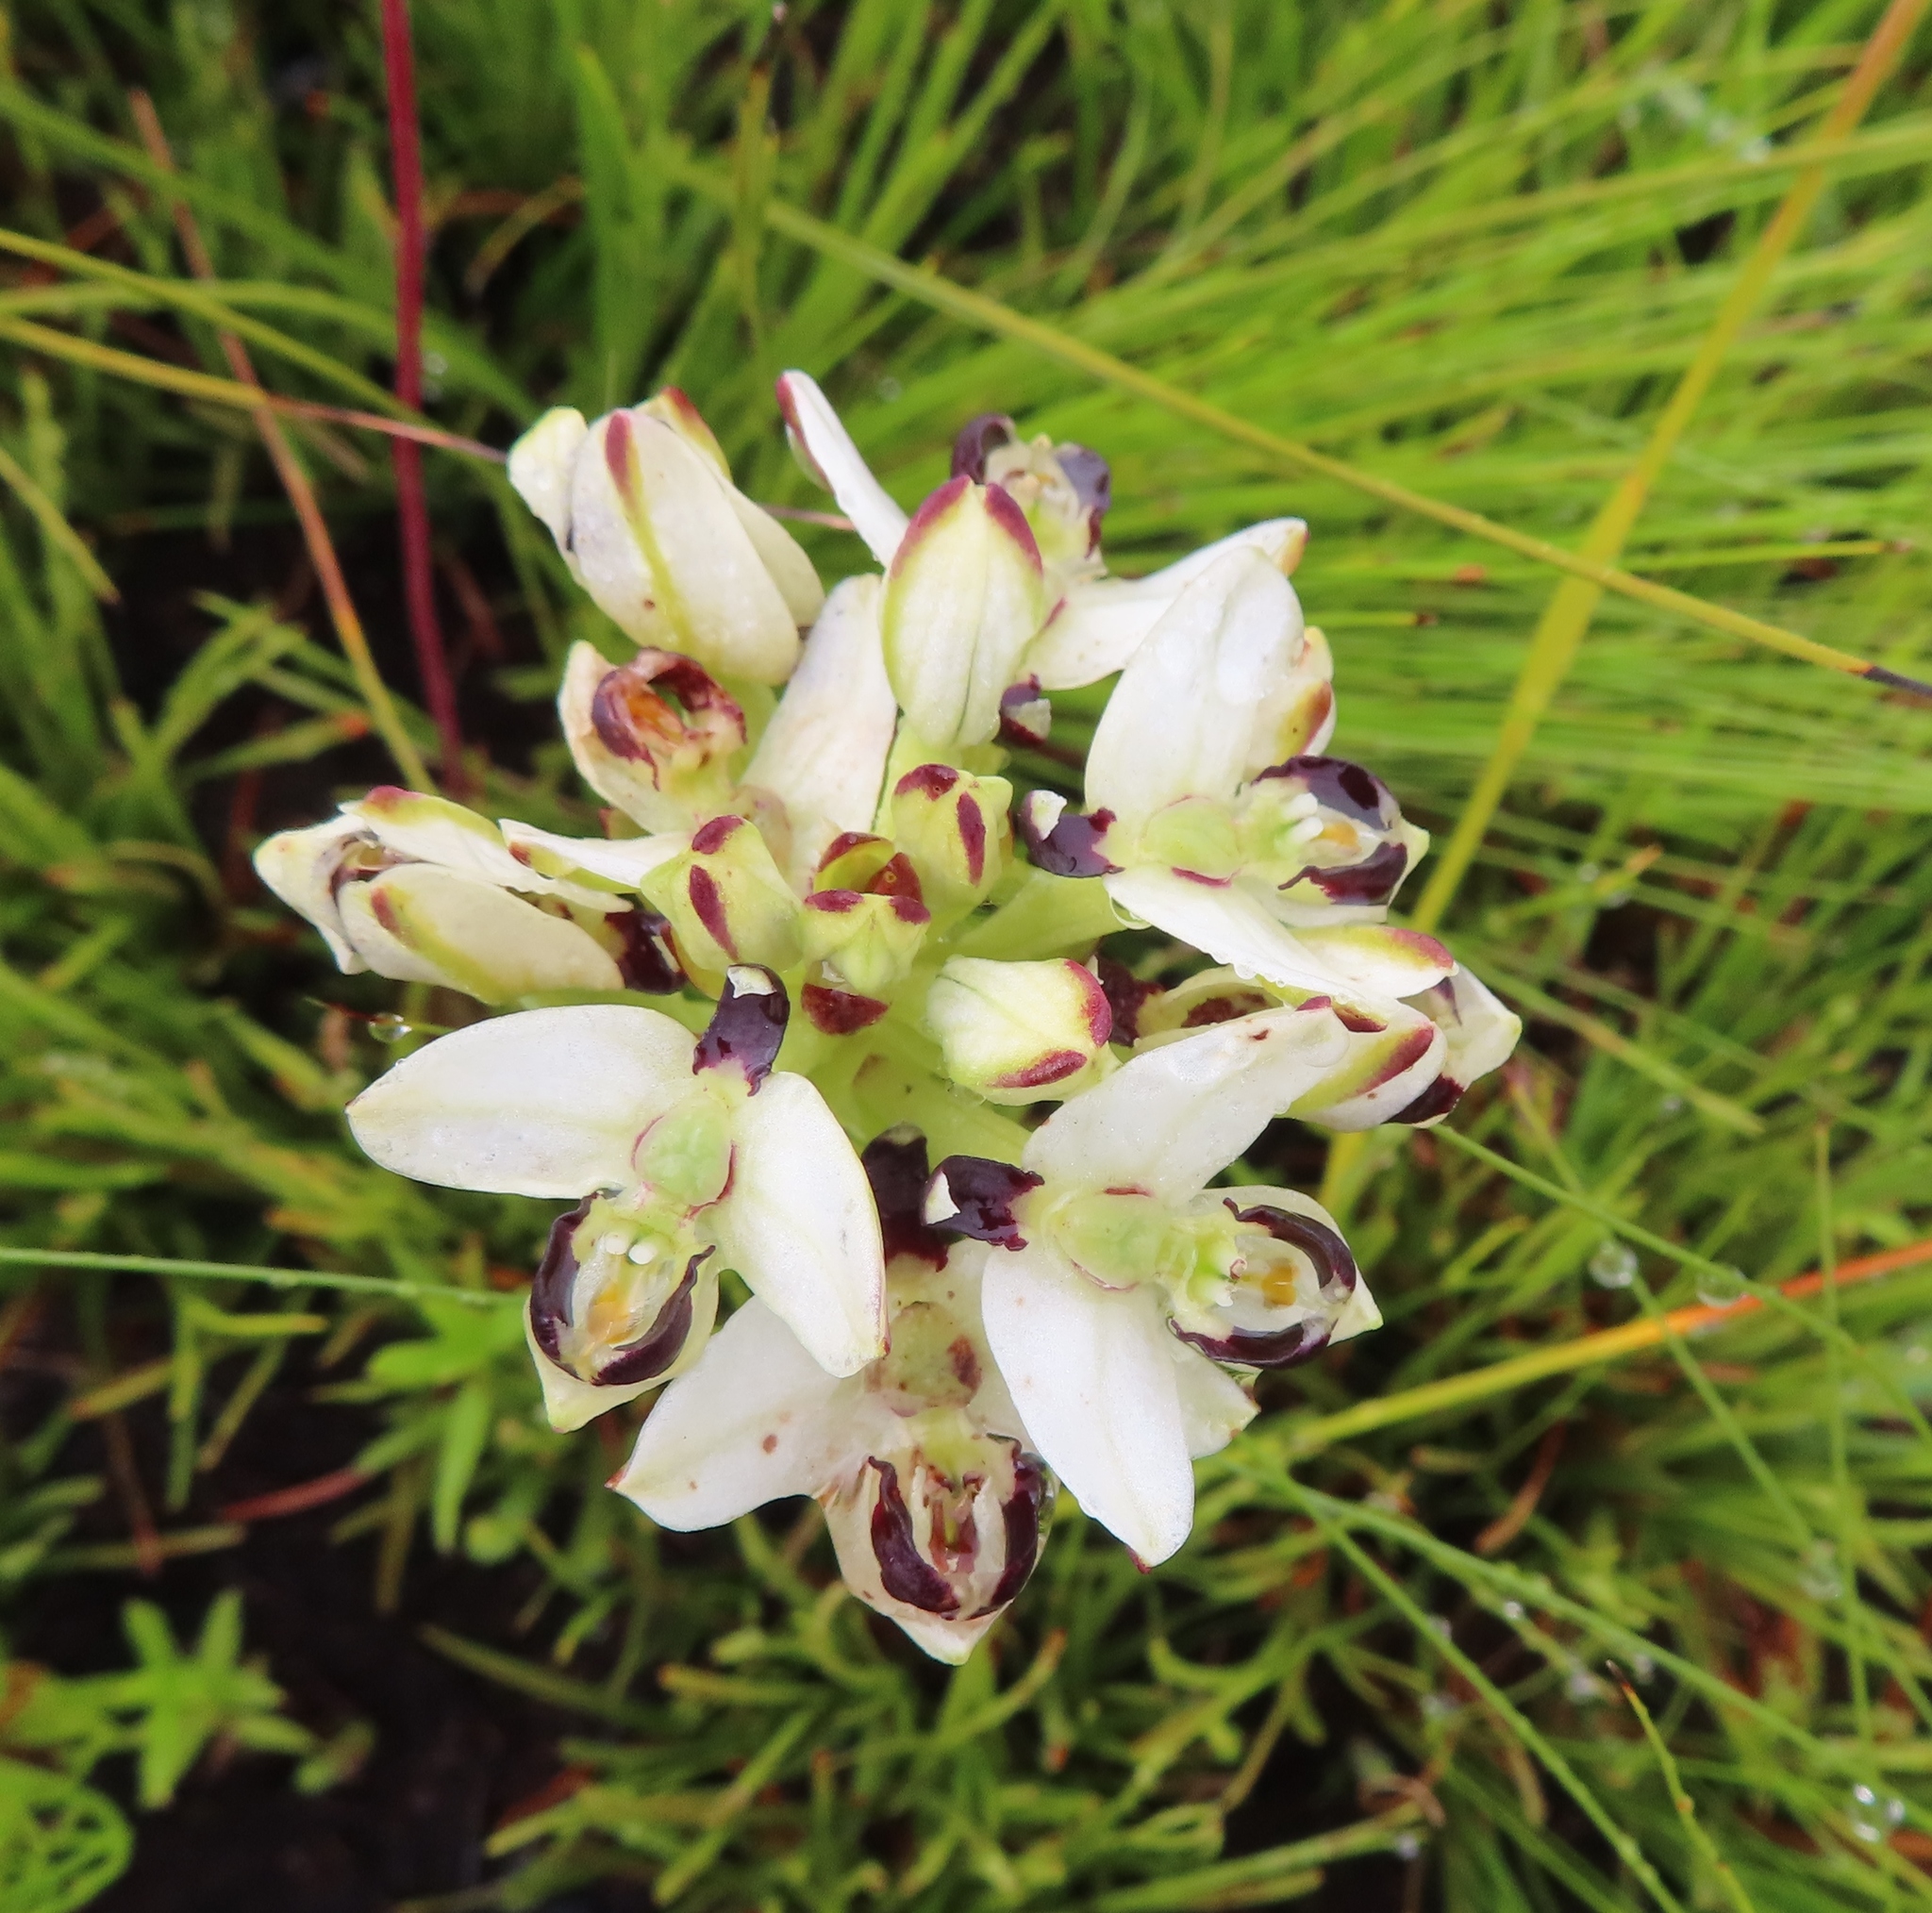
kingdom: Plantae
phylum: Tracheophyta
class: Liliopsida
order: Asparagales
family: Orchidaceae
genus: Disa
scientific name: Disa bivalvata
